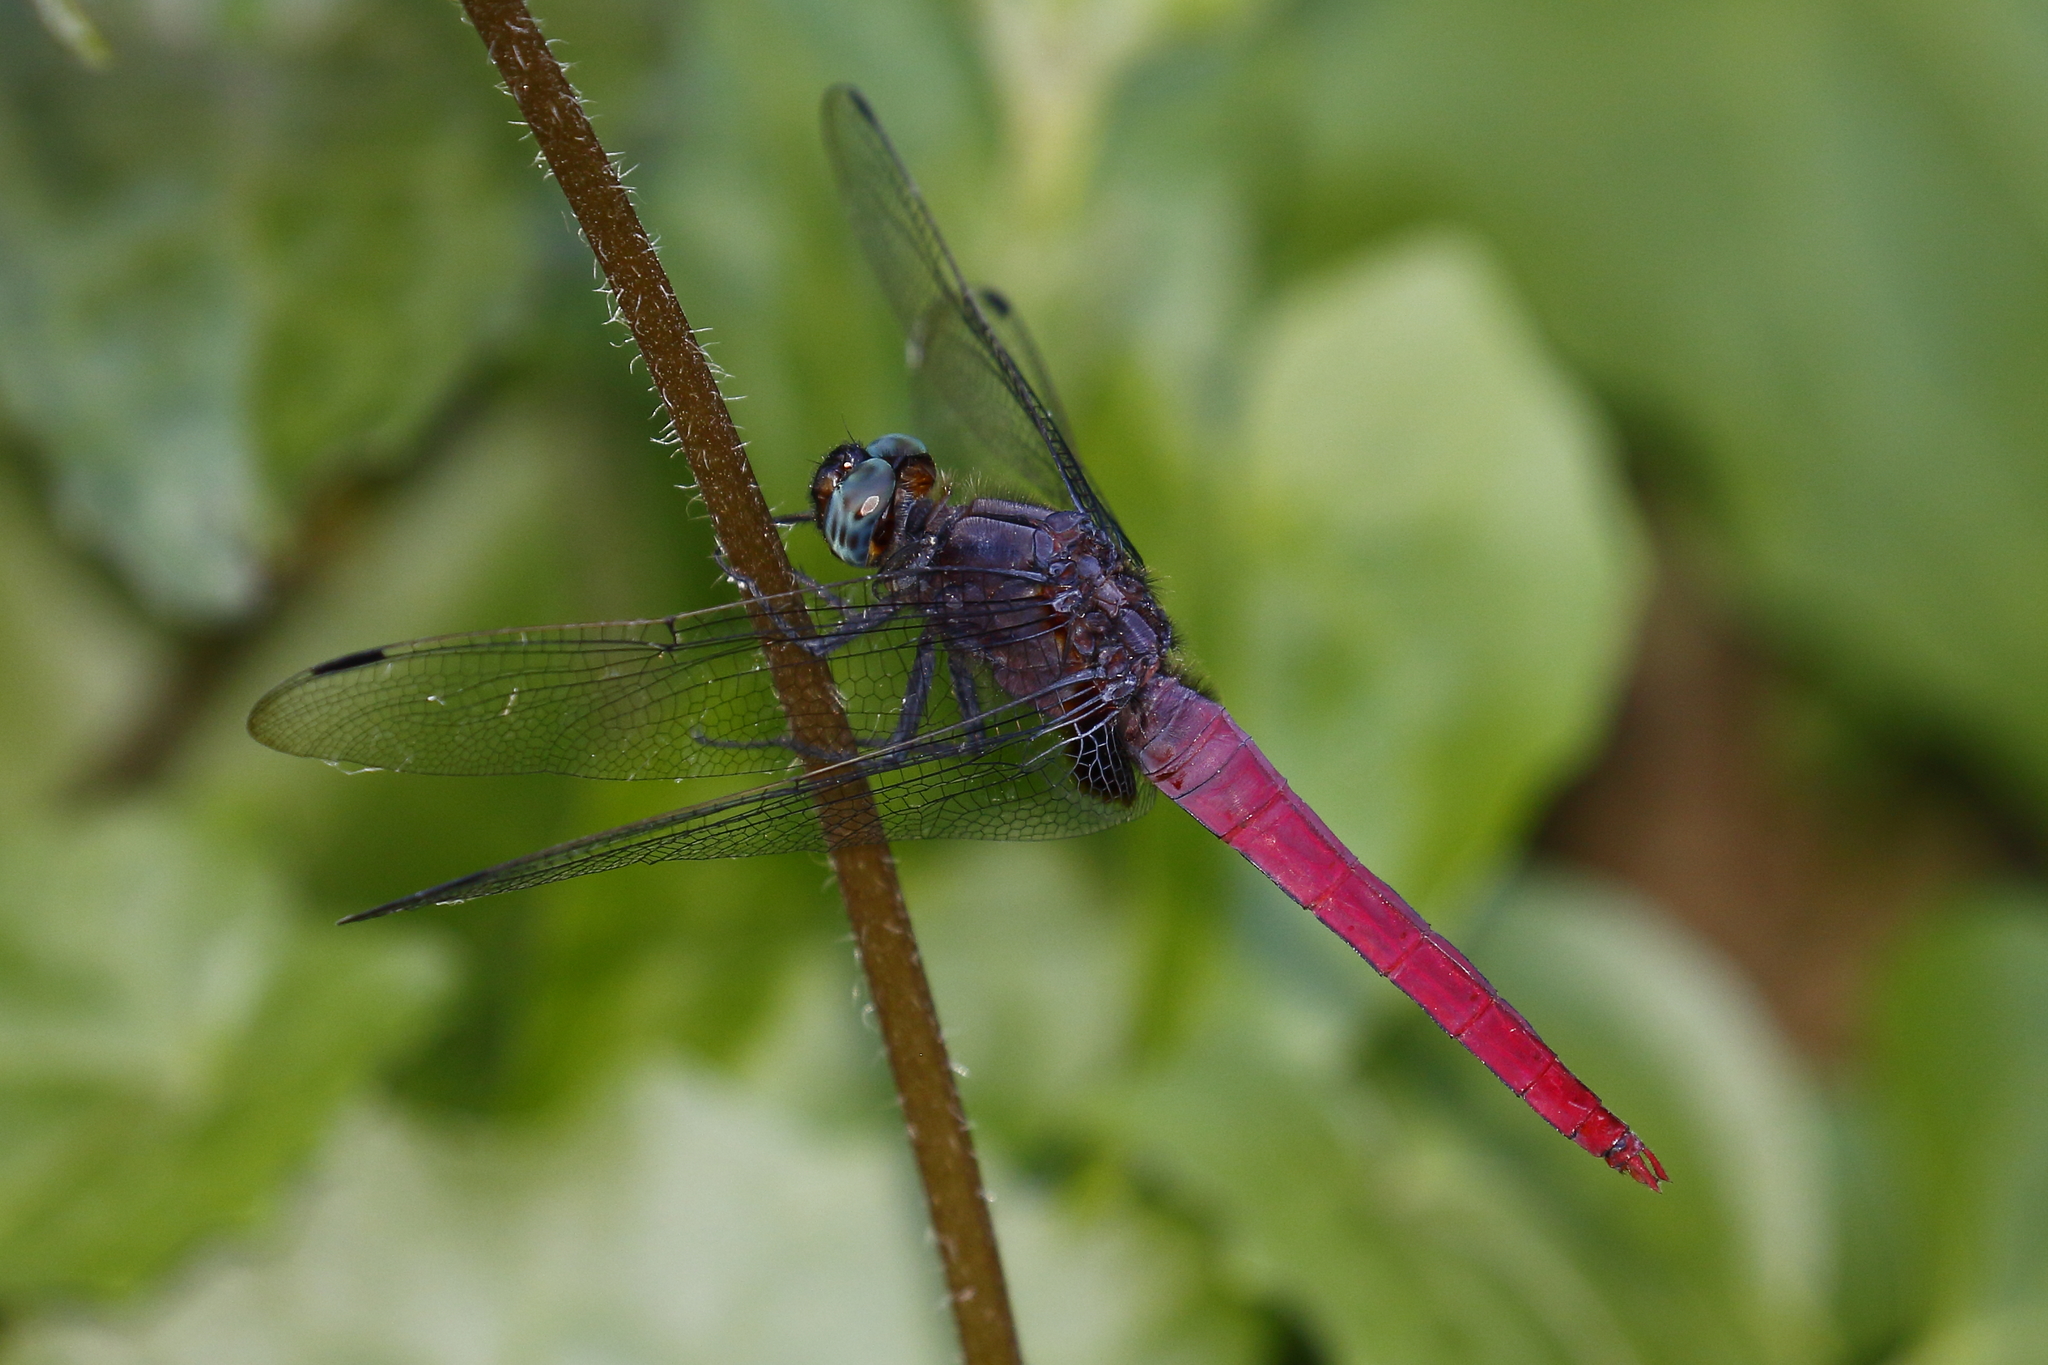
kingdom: Animalia
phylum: Arthropoda
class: Insecta
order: Odonata
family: Libellulidae
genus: Orthetrum
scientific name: Orthetrum pruinosum
